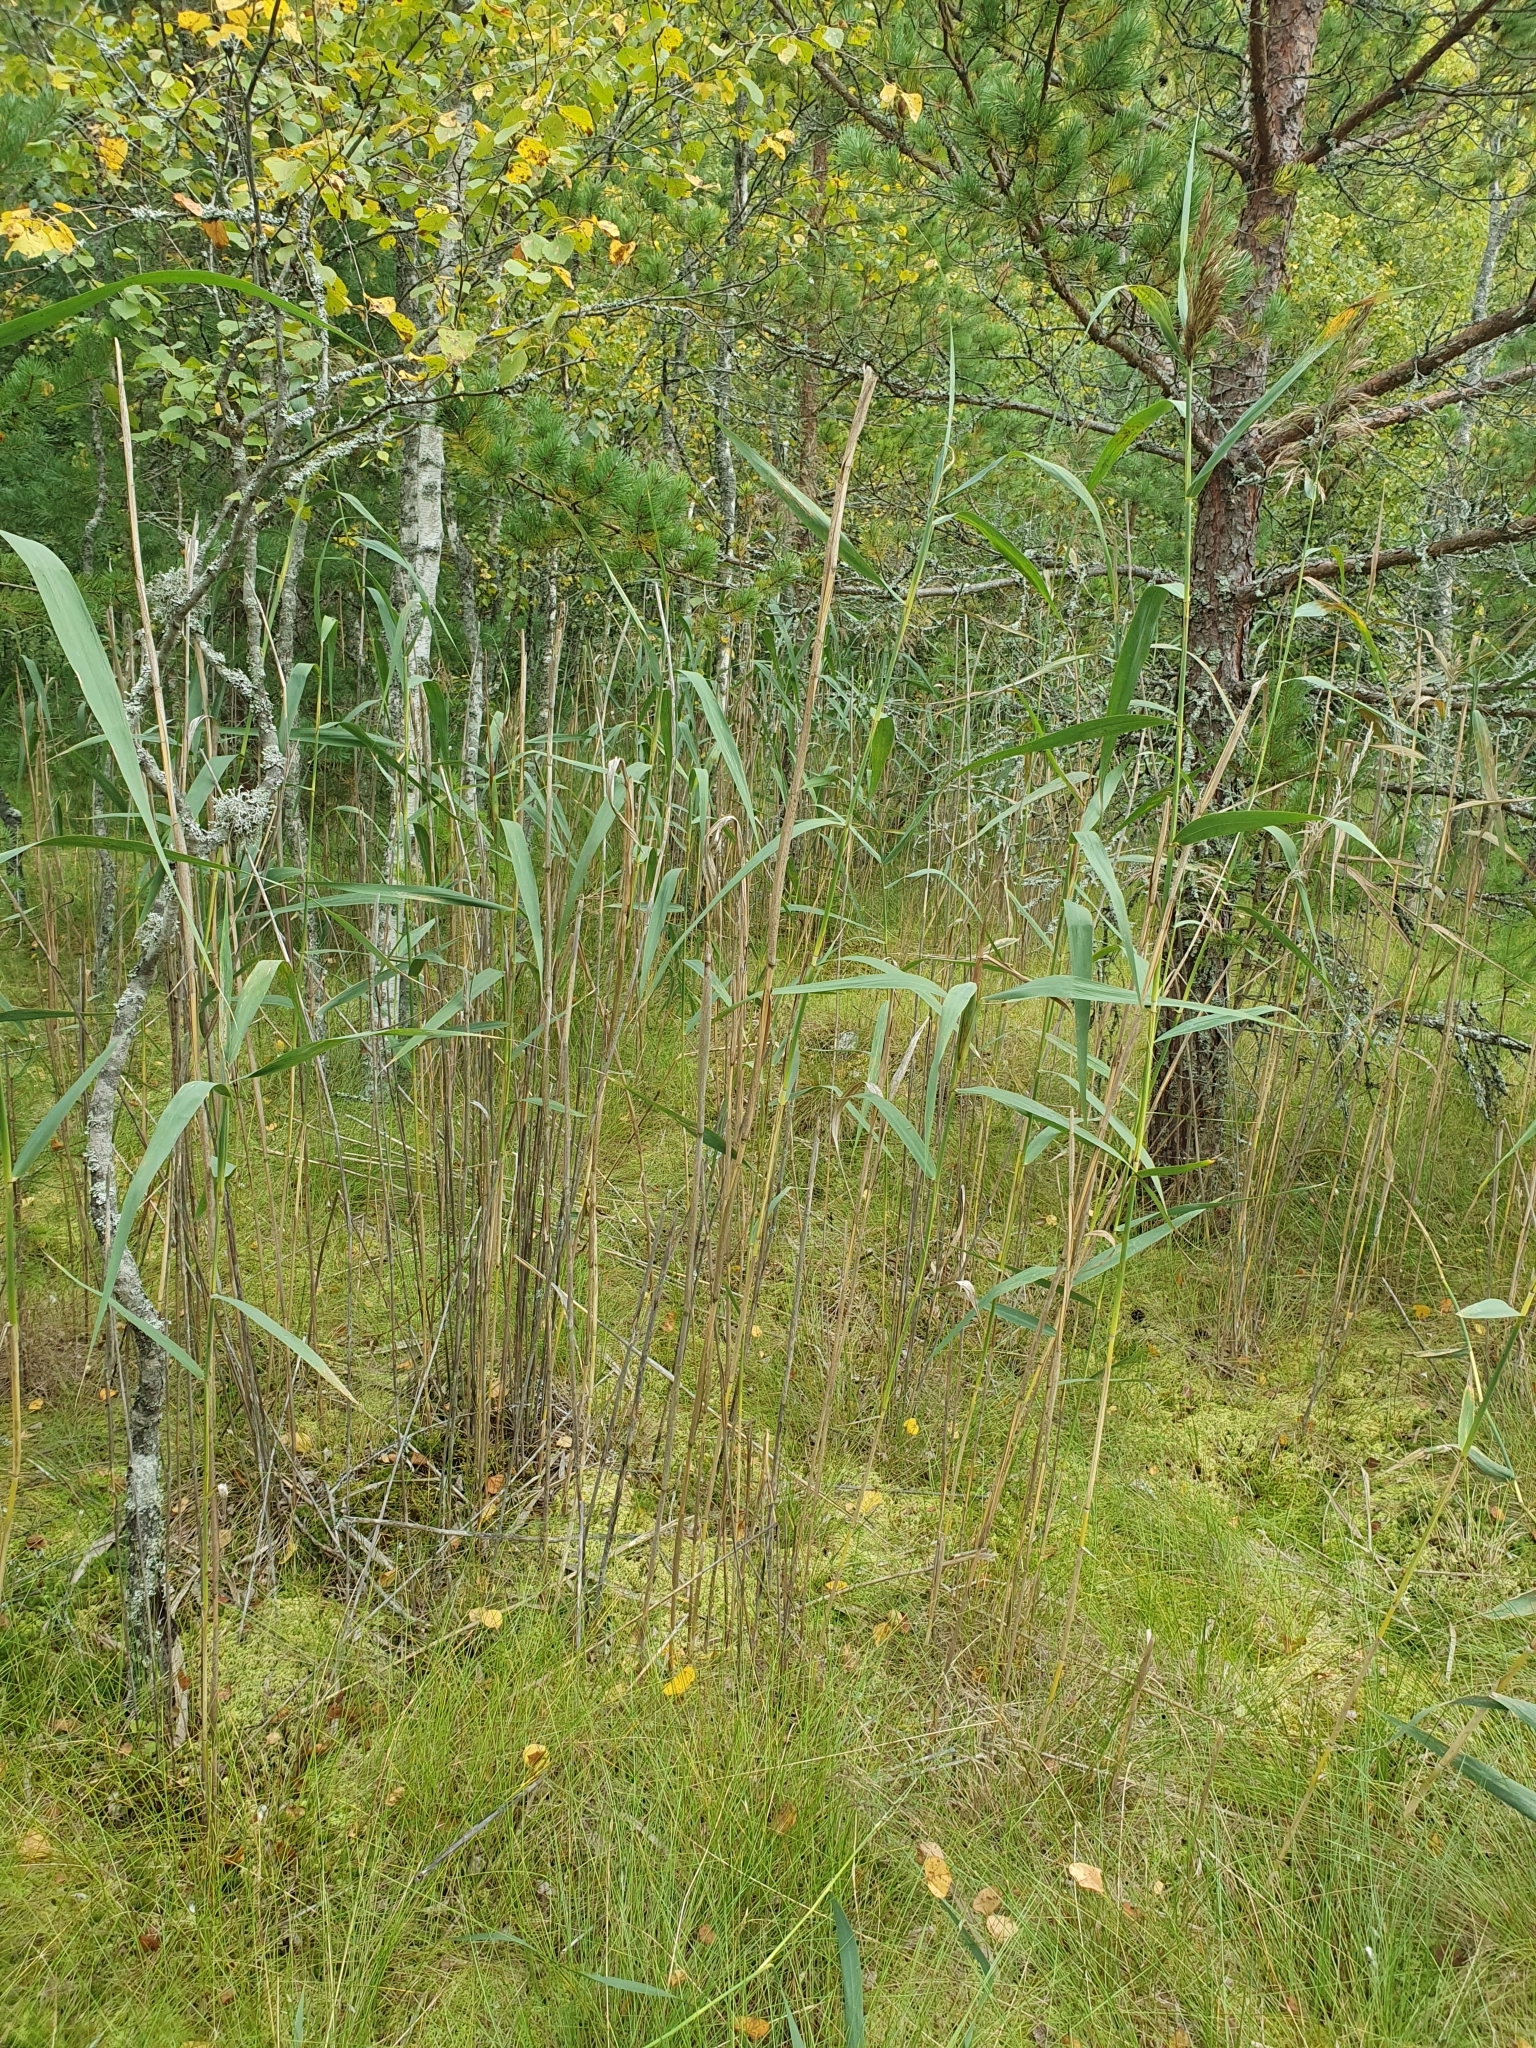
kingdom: Plantae
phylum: Tracheophyta
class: Liliopsida
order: Poales
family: Poaceae
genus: Phragmites
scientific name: Phragmites australis
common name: Common reed
